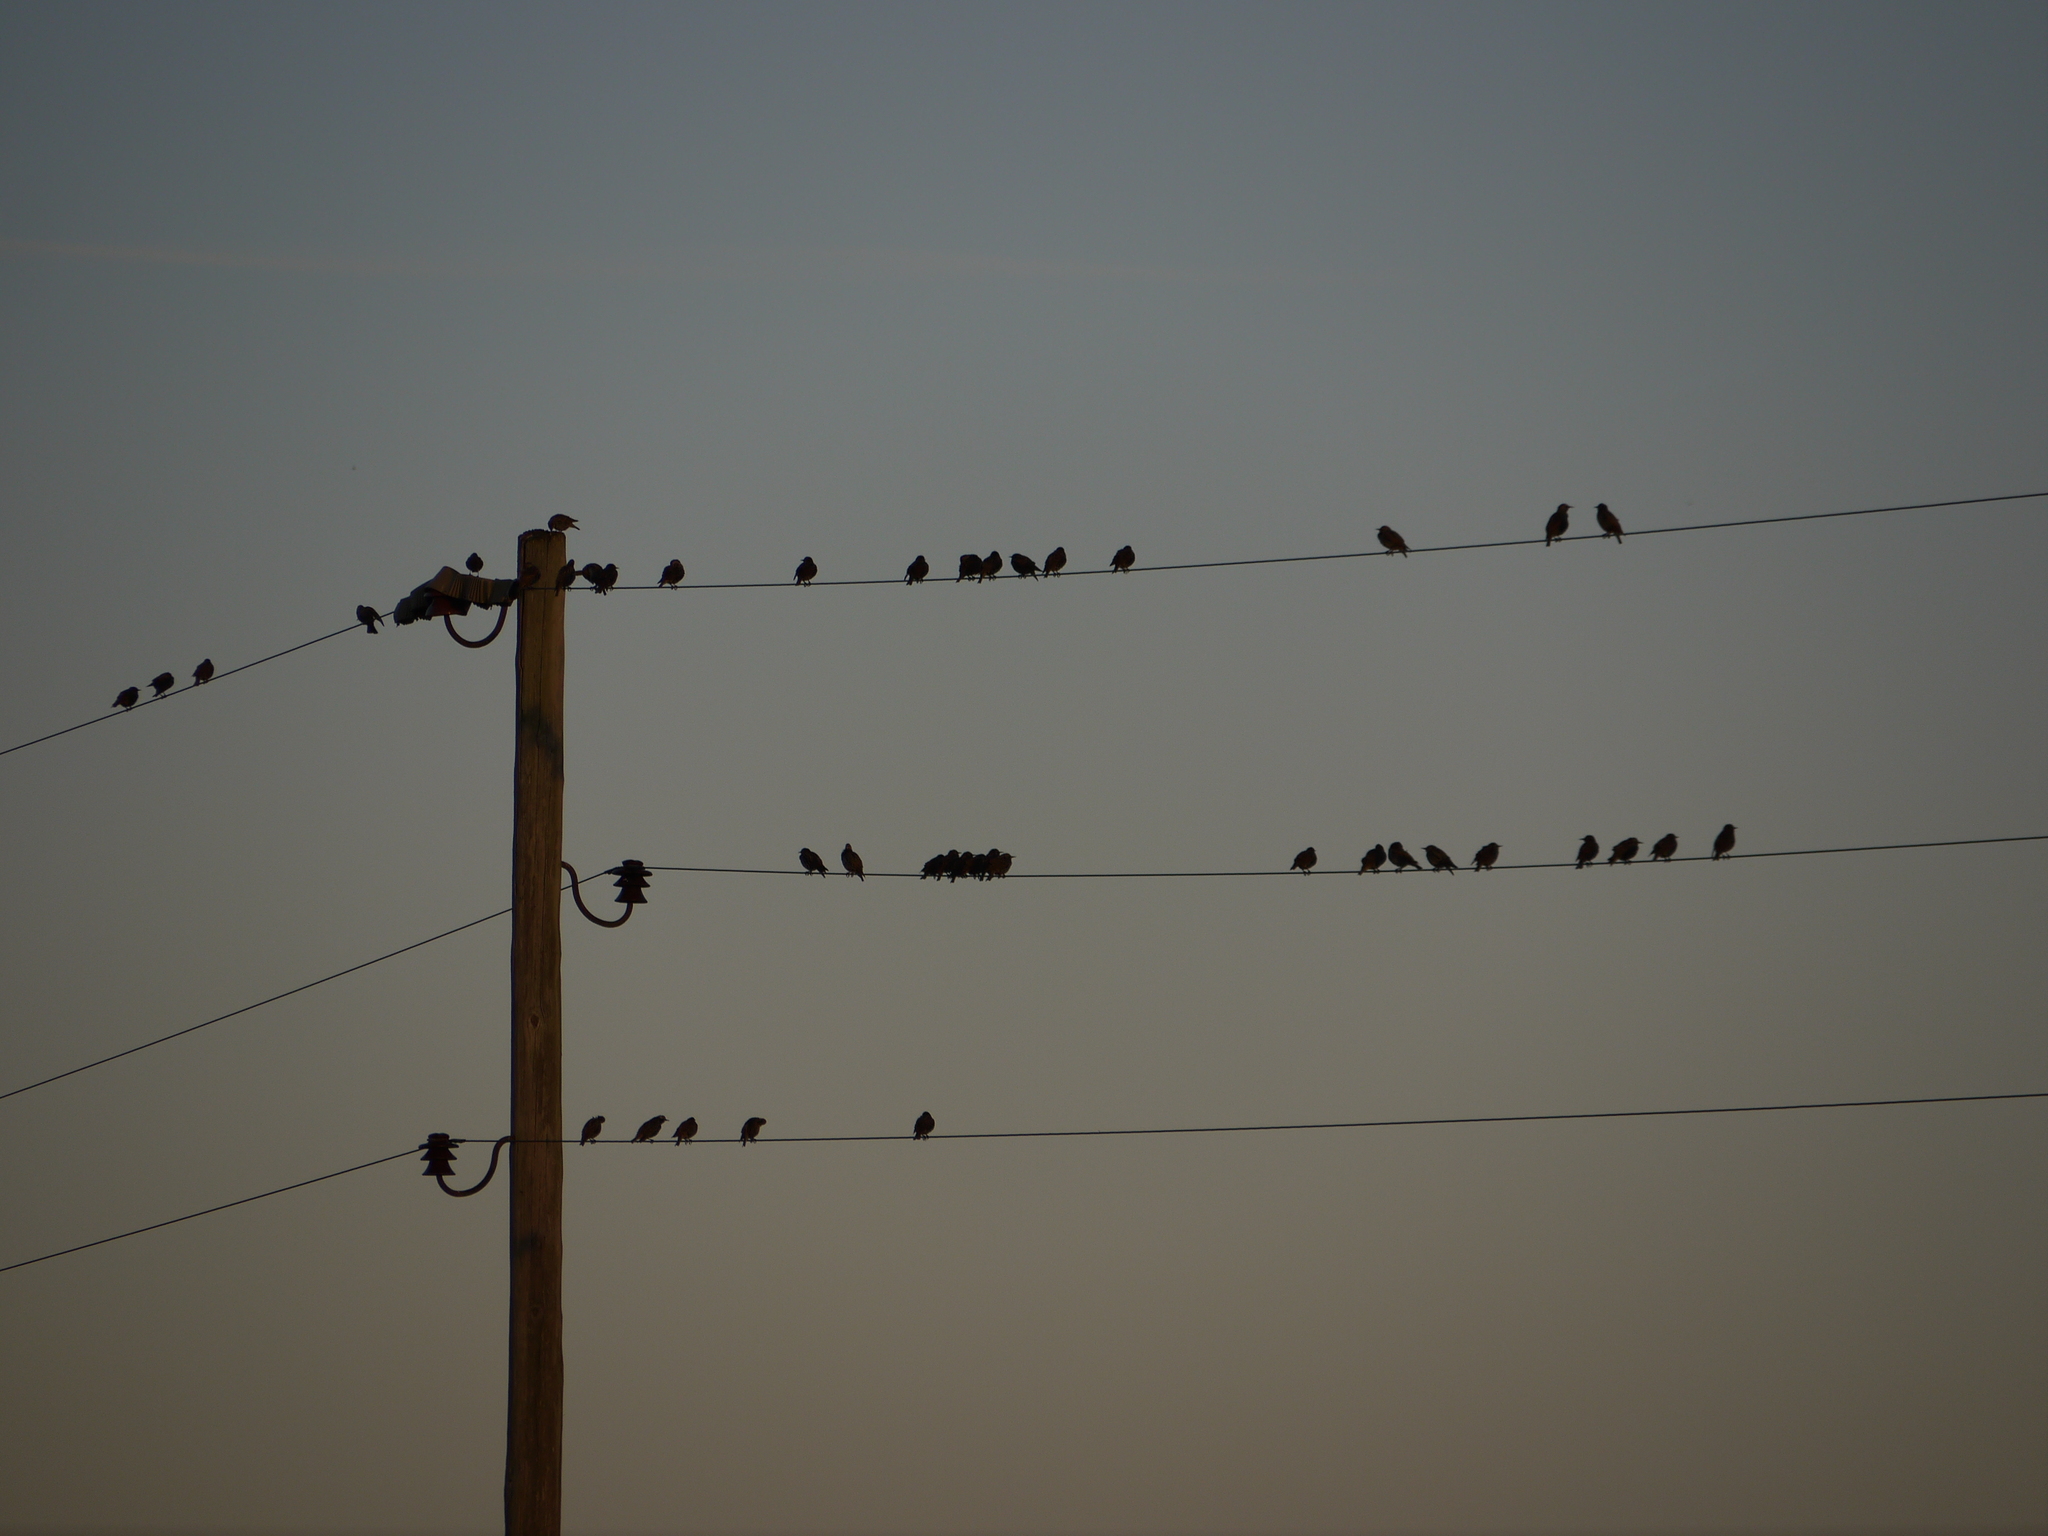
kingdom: Animalia
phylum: Chordata
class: Aves
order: Passeriformes
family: Sturnidae
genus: Sturnus
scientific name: Sturnus vulgaris
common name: Common starling
